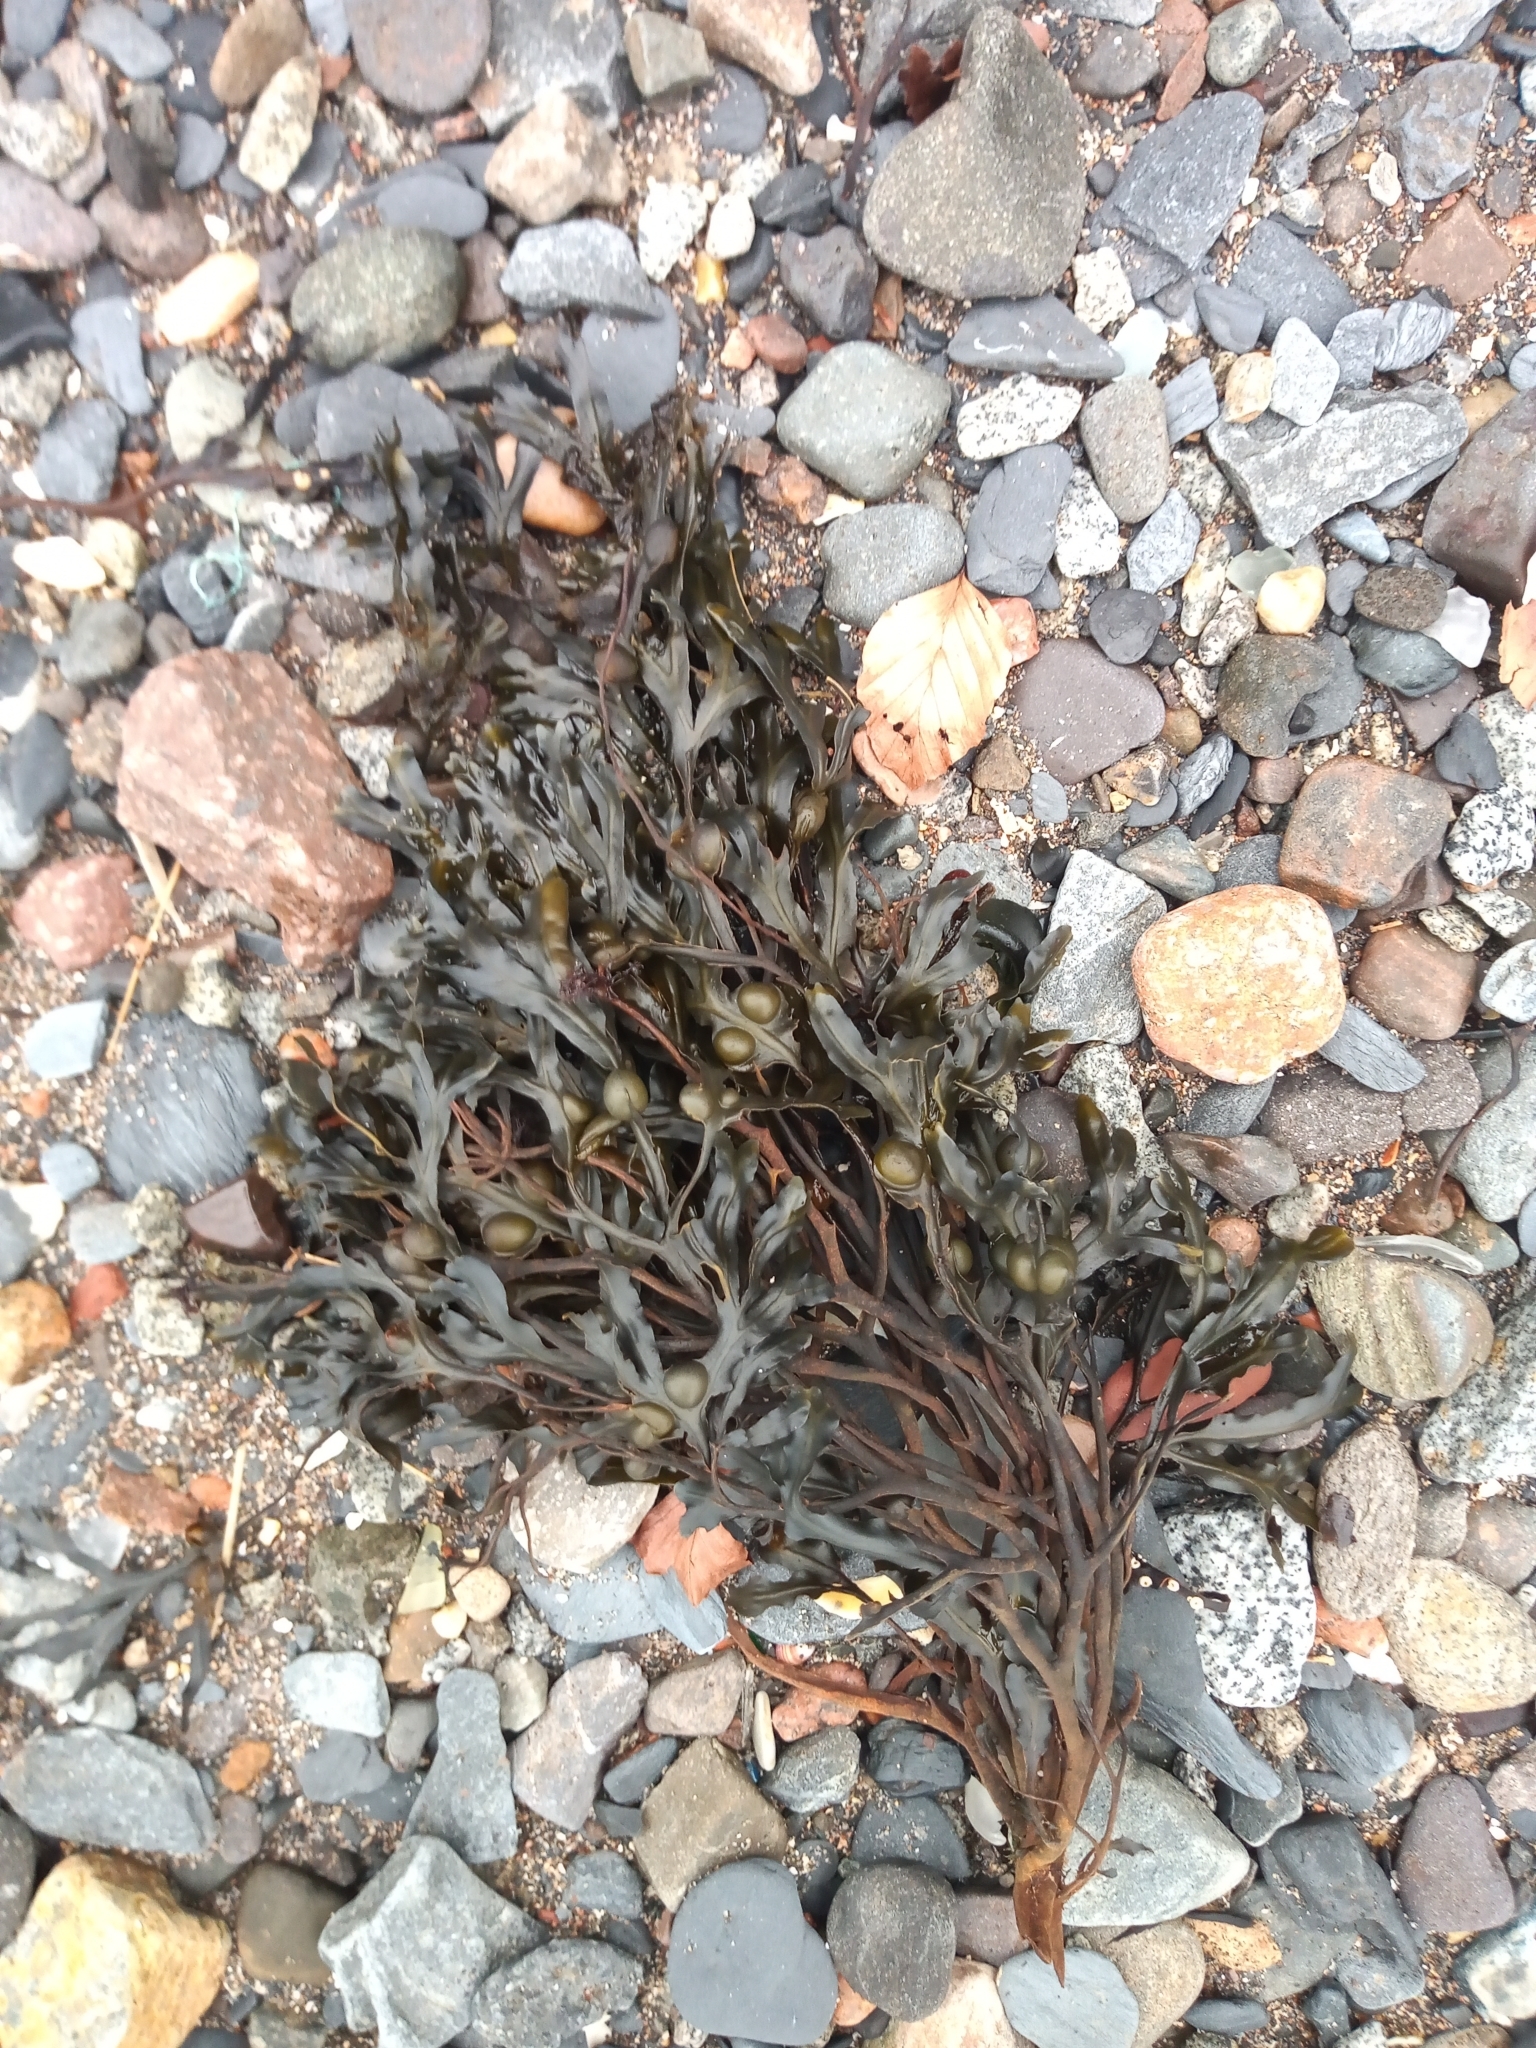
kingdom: Chromista
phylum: Ochrophyta
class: Phaeophyceae
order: Fucales
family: Fucaceae
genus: Fucus
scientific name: Fucus vesiculosus
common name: Bladder wrack
